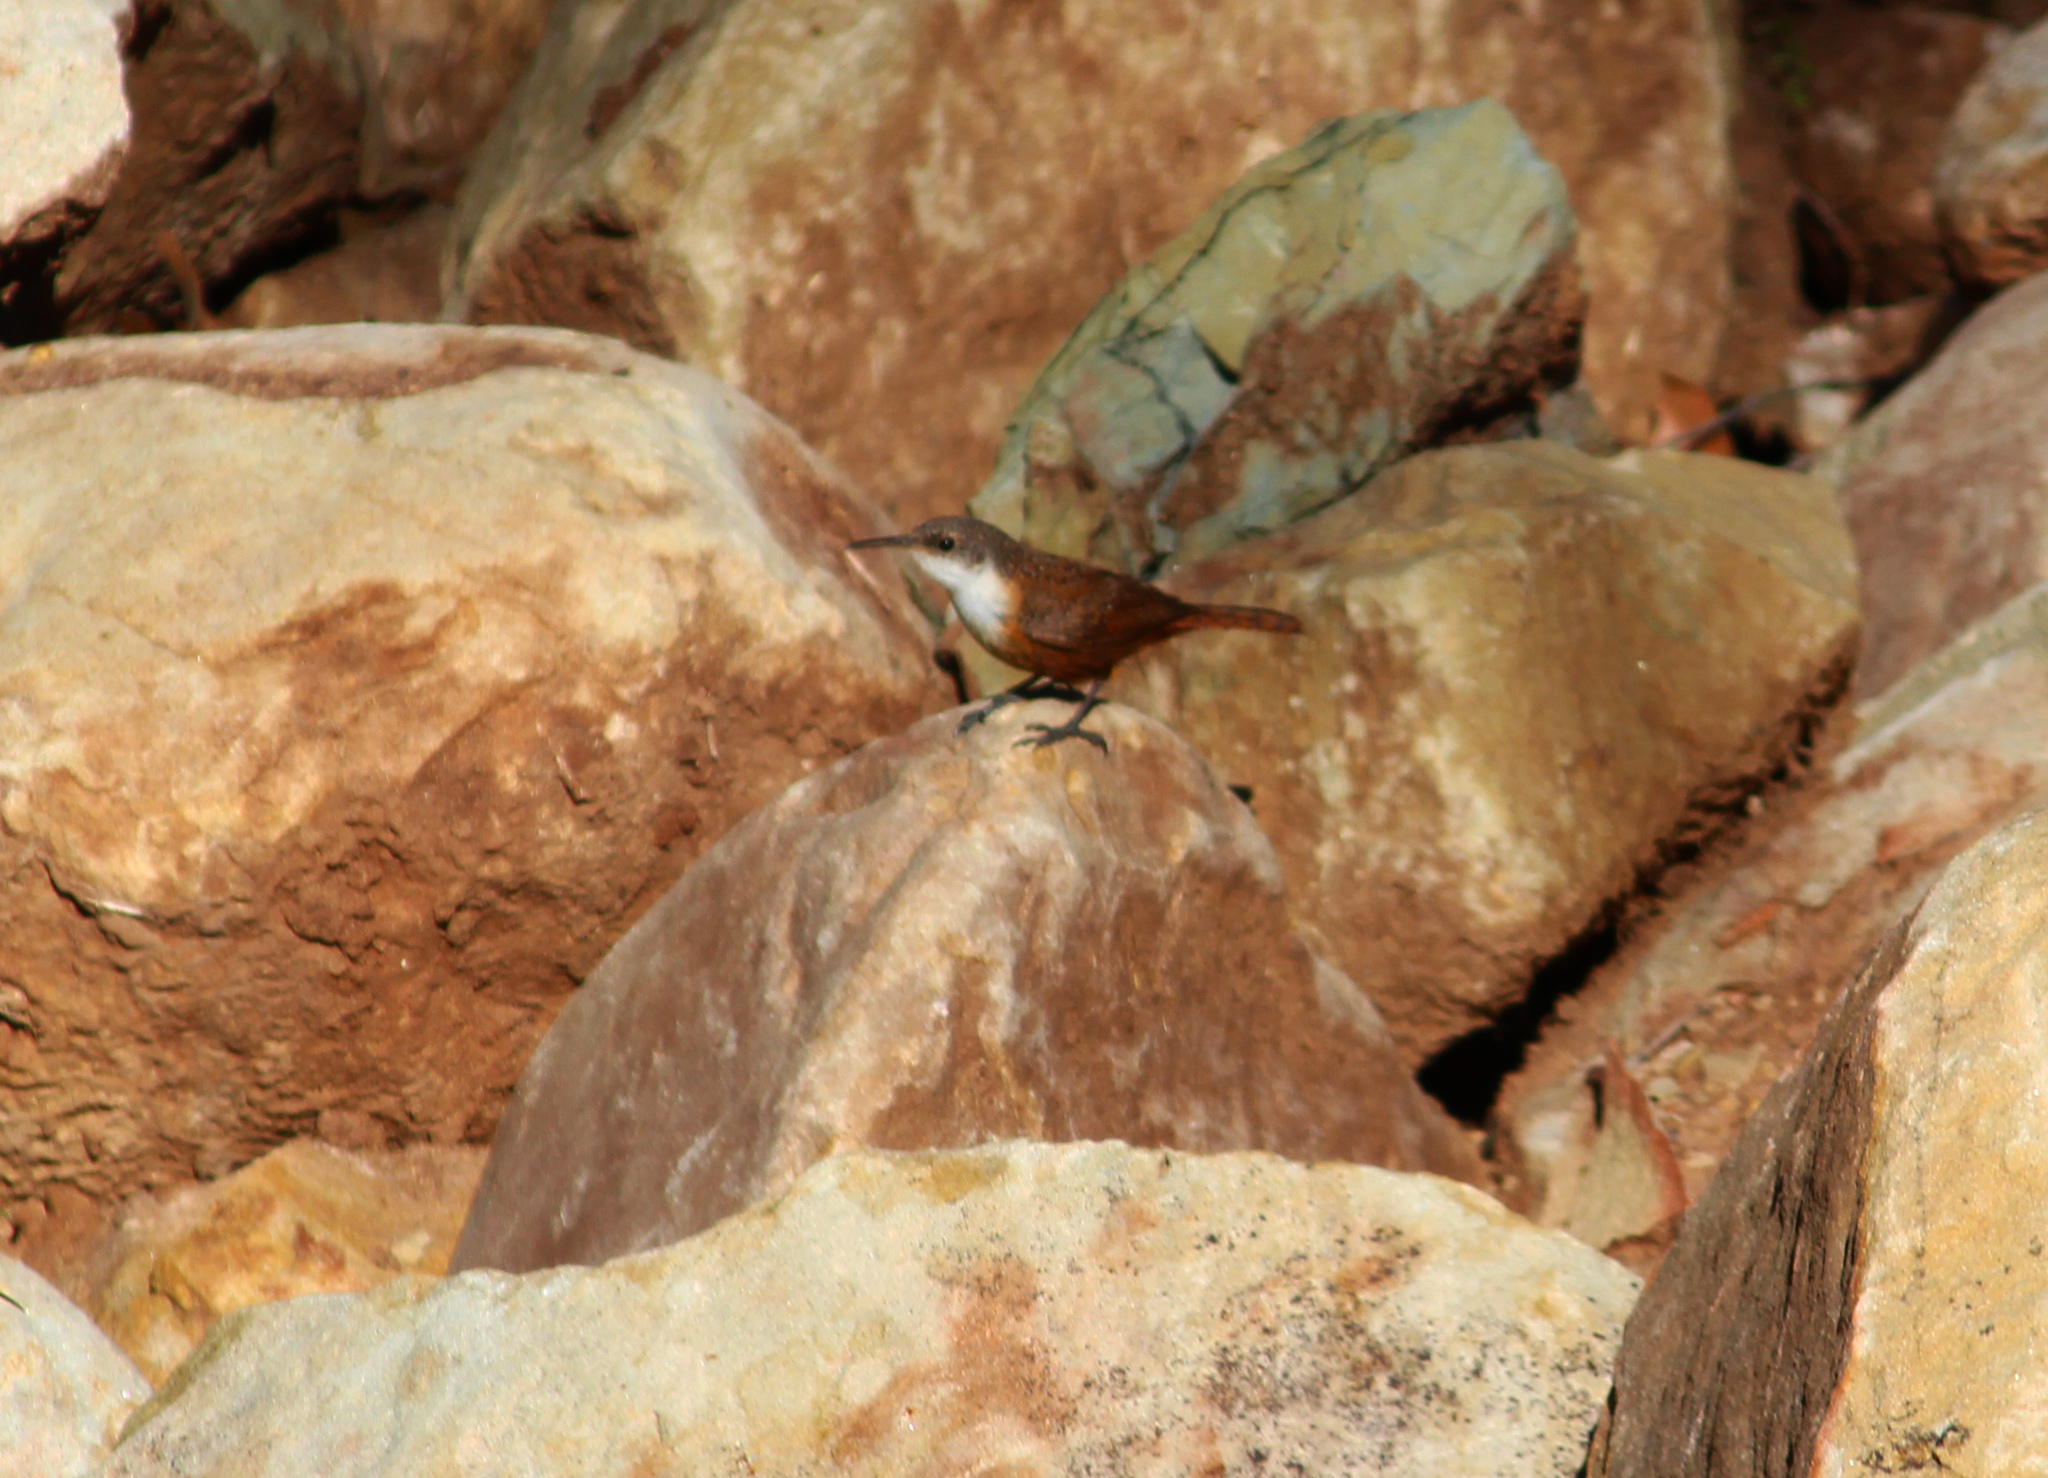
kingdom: Animalia
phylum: Chordata
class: Aves
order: Passeriformes
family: Troglodytidae
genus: Catherpes
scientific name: Catherpes mexicanus
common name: Canyon wren
